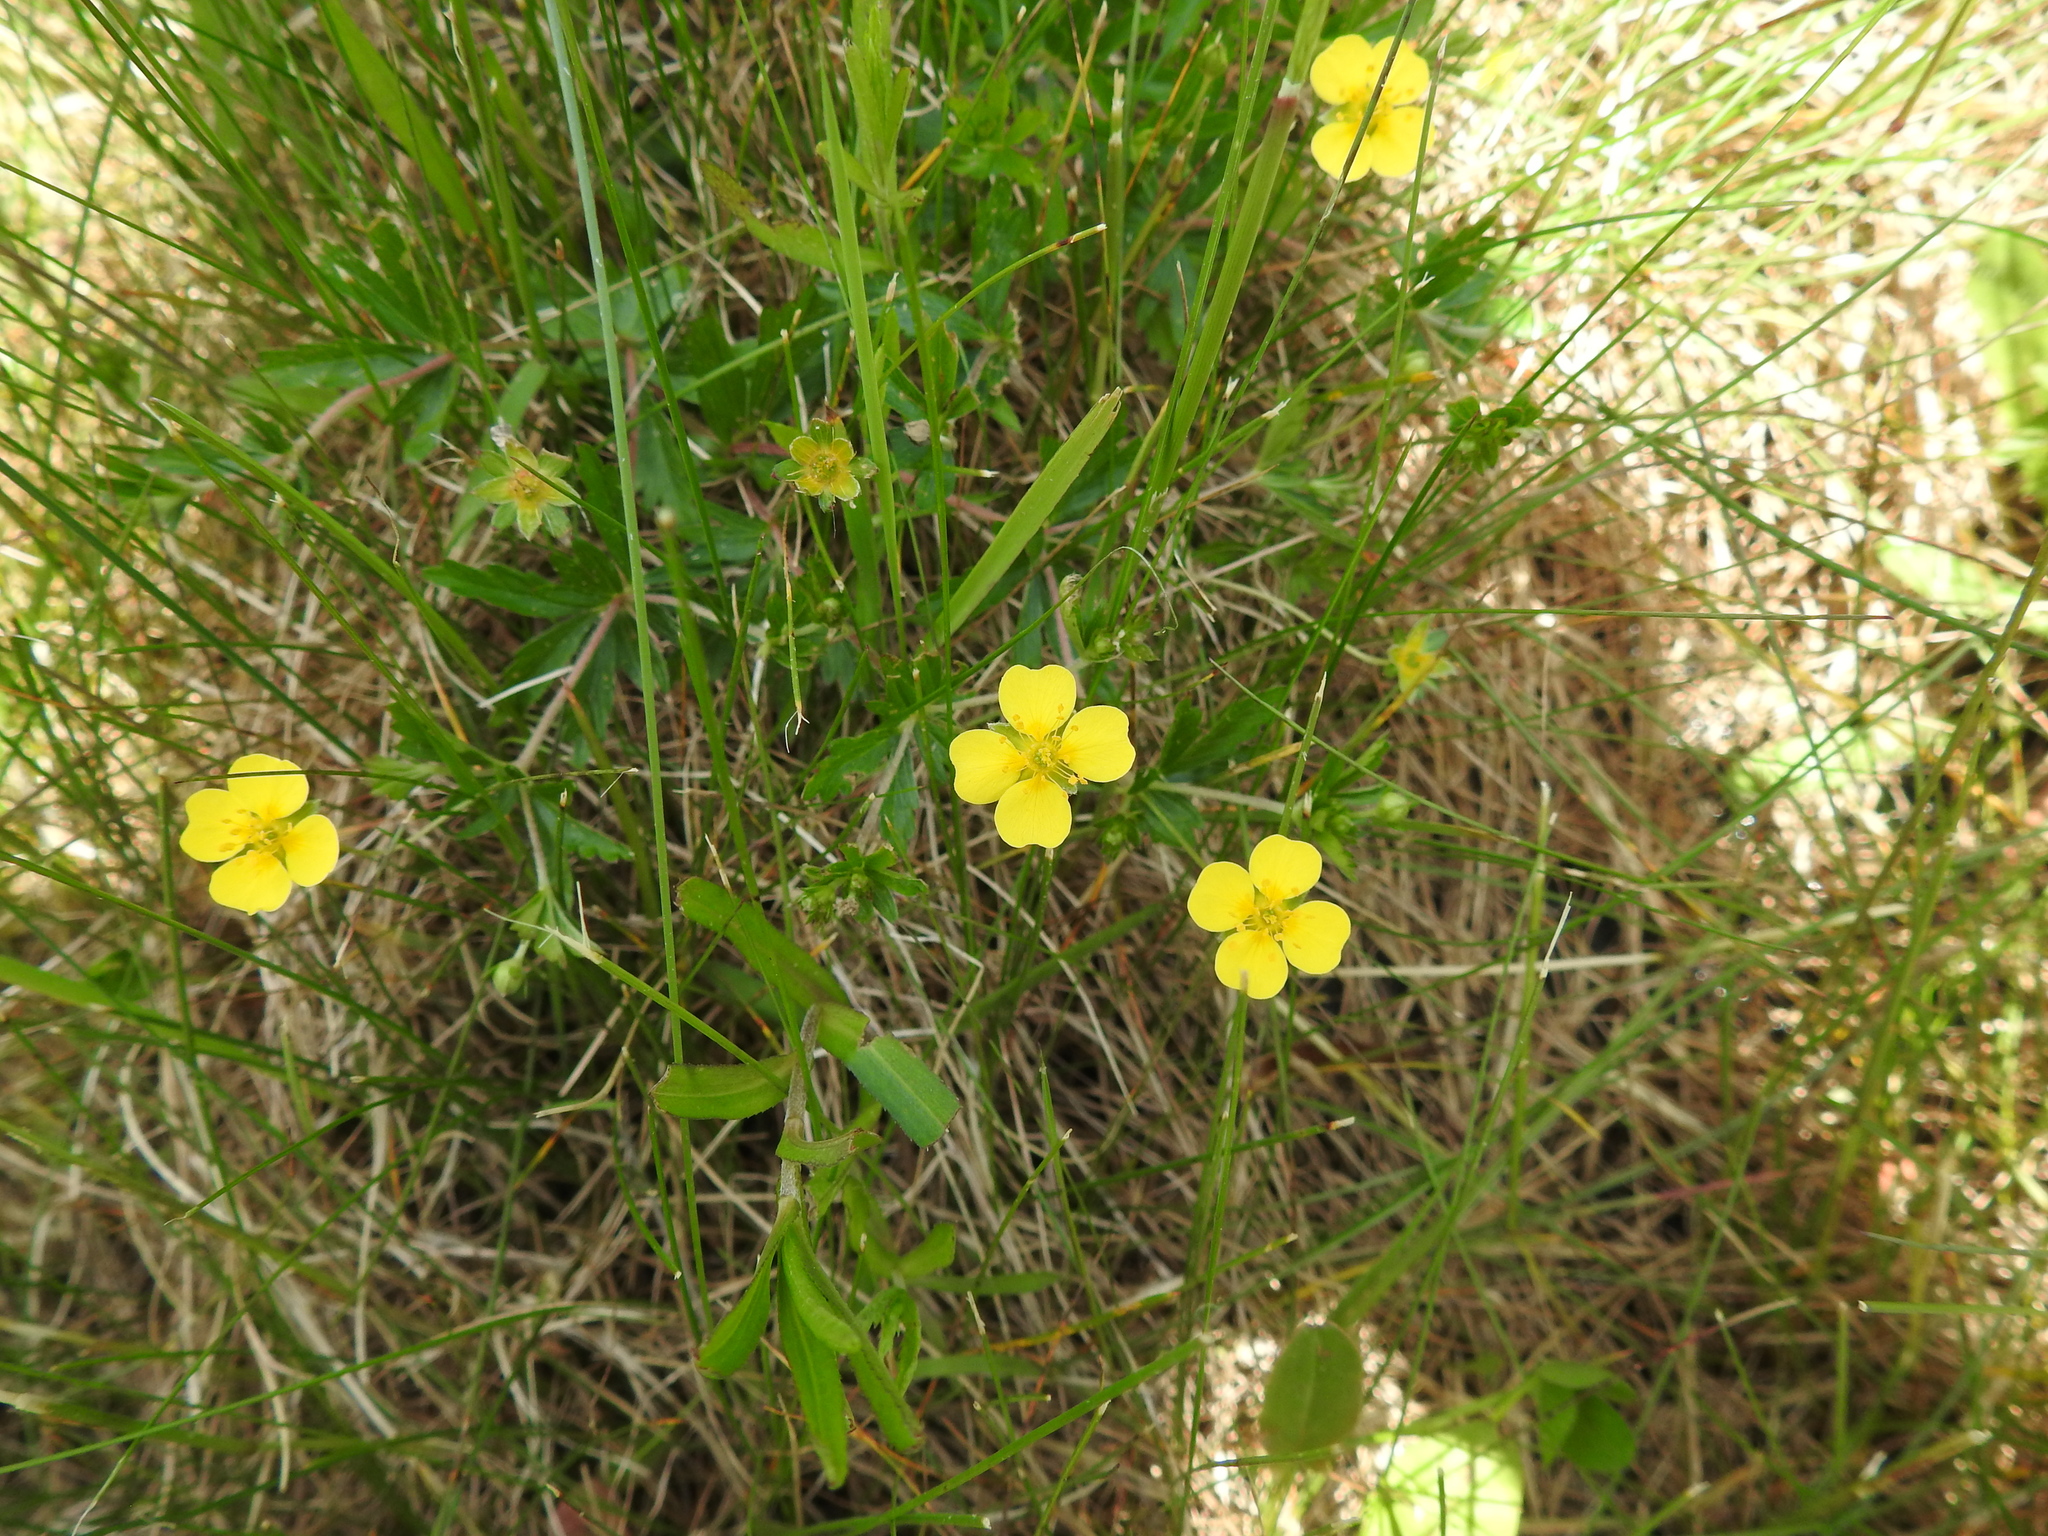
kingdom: Plantae
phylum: Tracheophyta
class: Magnoliopsida
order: Rosales
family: Rosaceae
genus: Potentilla
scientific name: Potentilla erecta
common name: Tormentil
